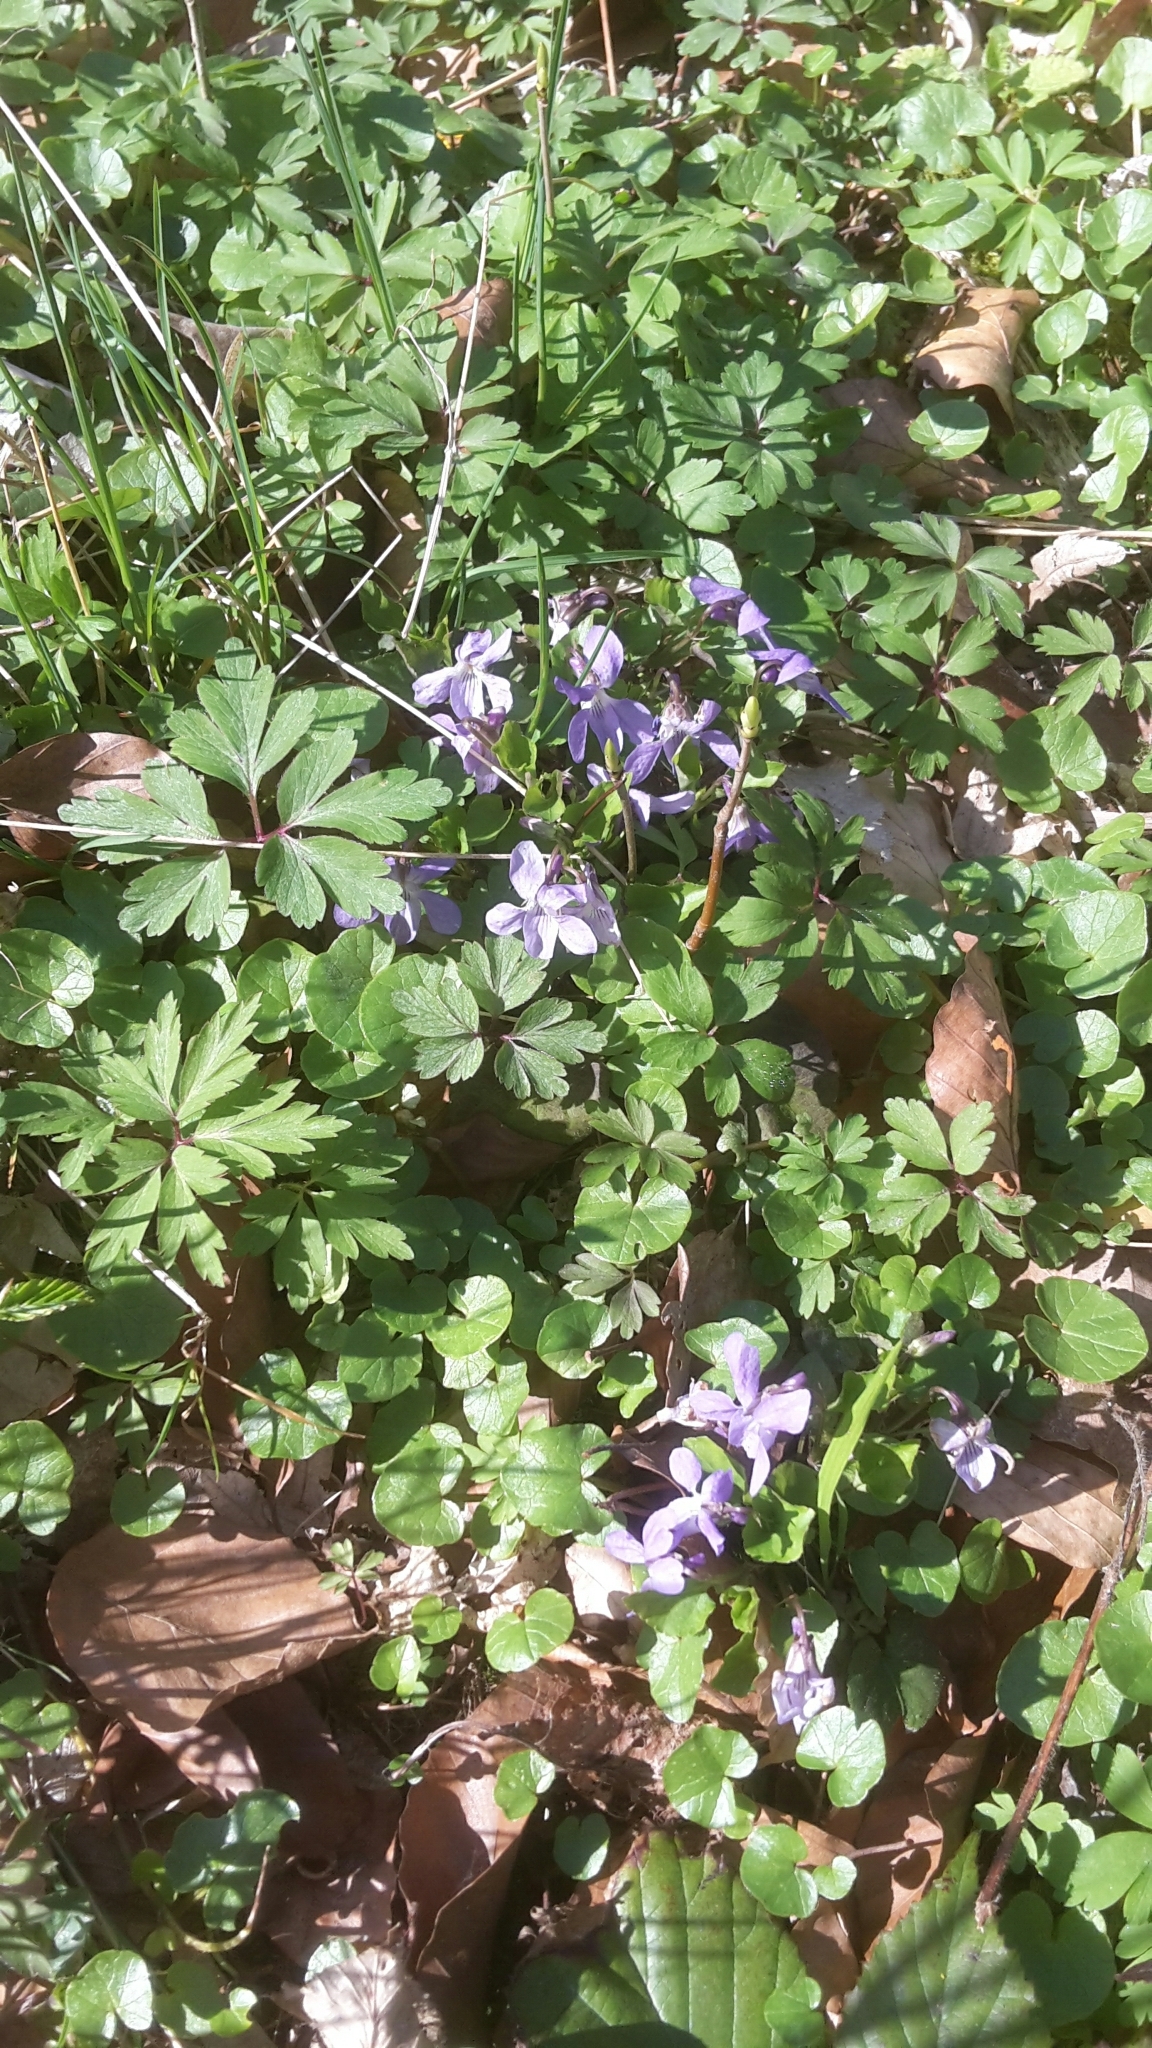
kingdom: Plantae
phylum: Tracheophyta
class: Magnoliopsida
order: Malpighiales
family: Violaceae
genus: Viola
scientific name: Viola reichenbachiana
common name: Early dog-violet
